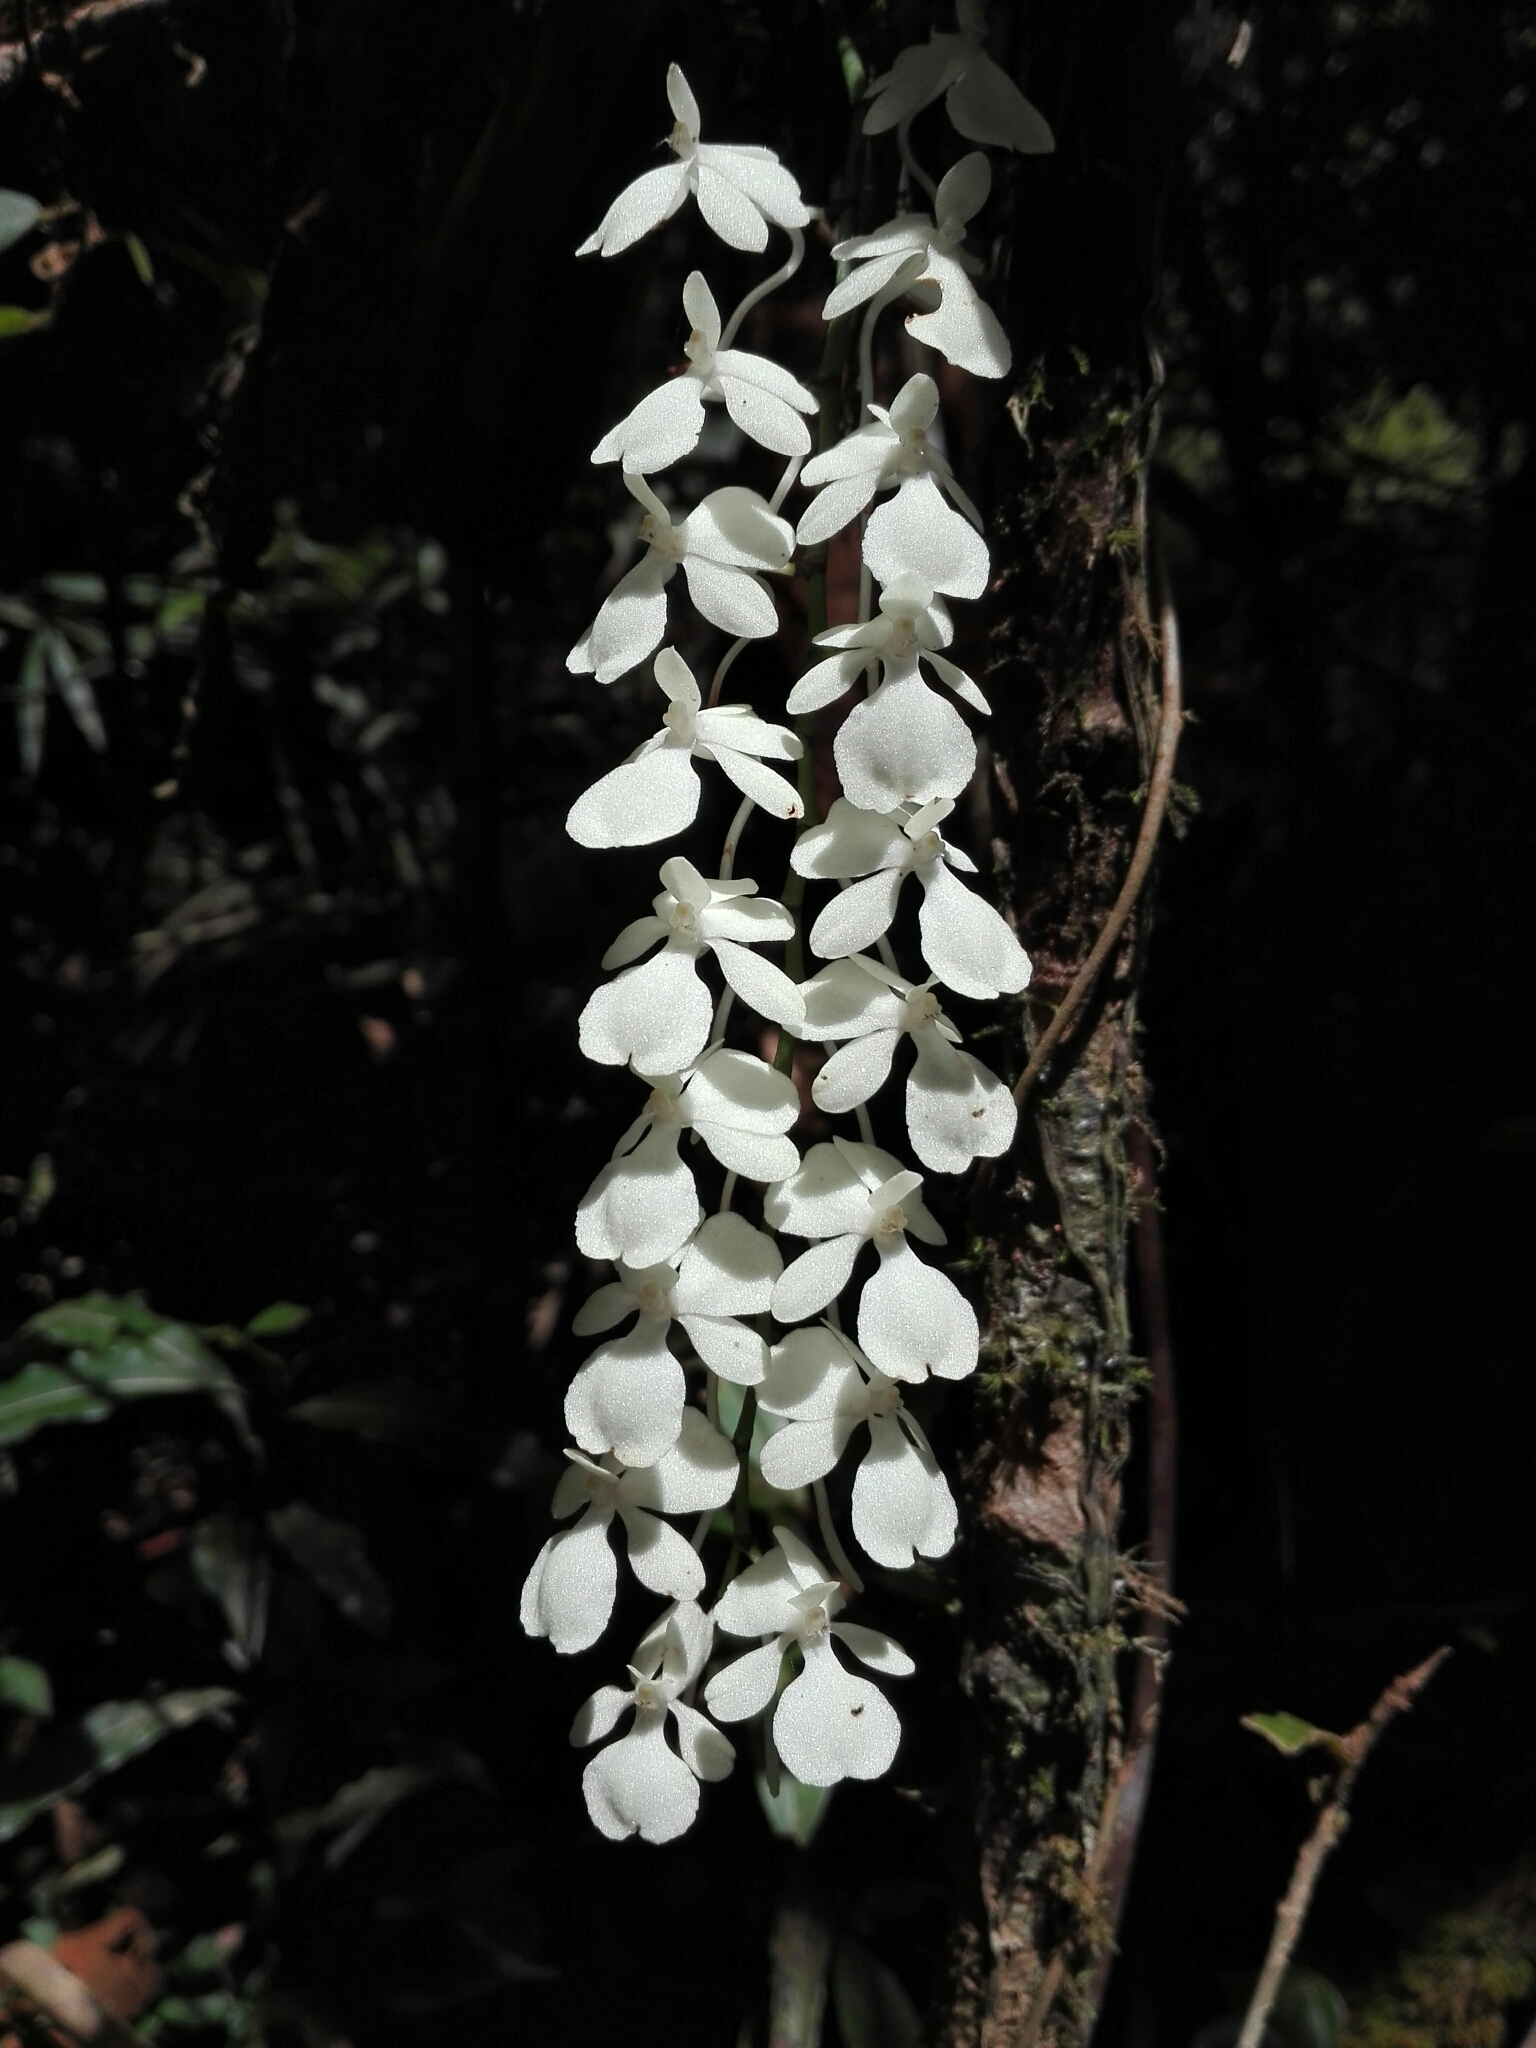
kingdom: Plantae
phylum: Tracheophyta
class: Liliopsida
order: Asparagales
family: Orchidaceae
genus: Aerangis
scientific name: Aerangis citrata
